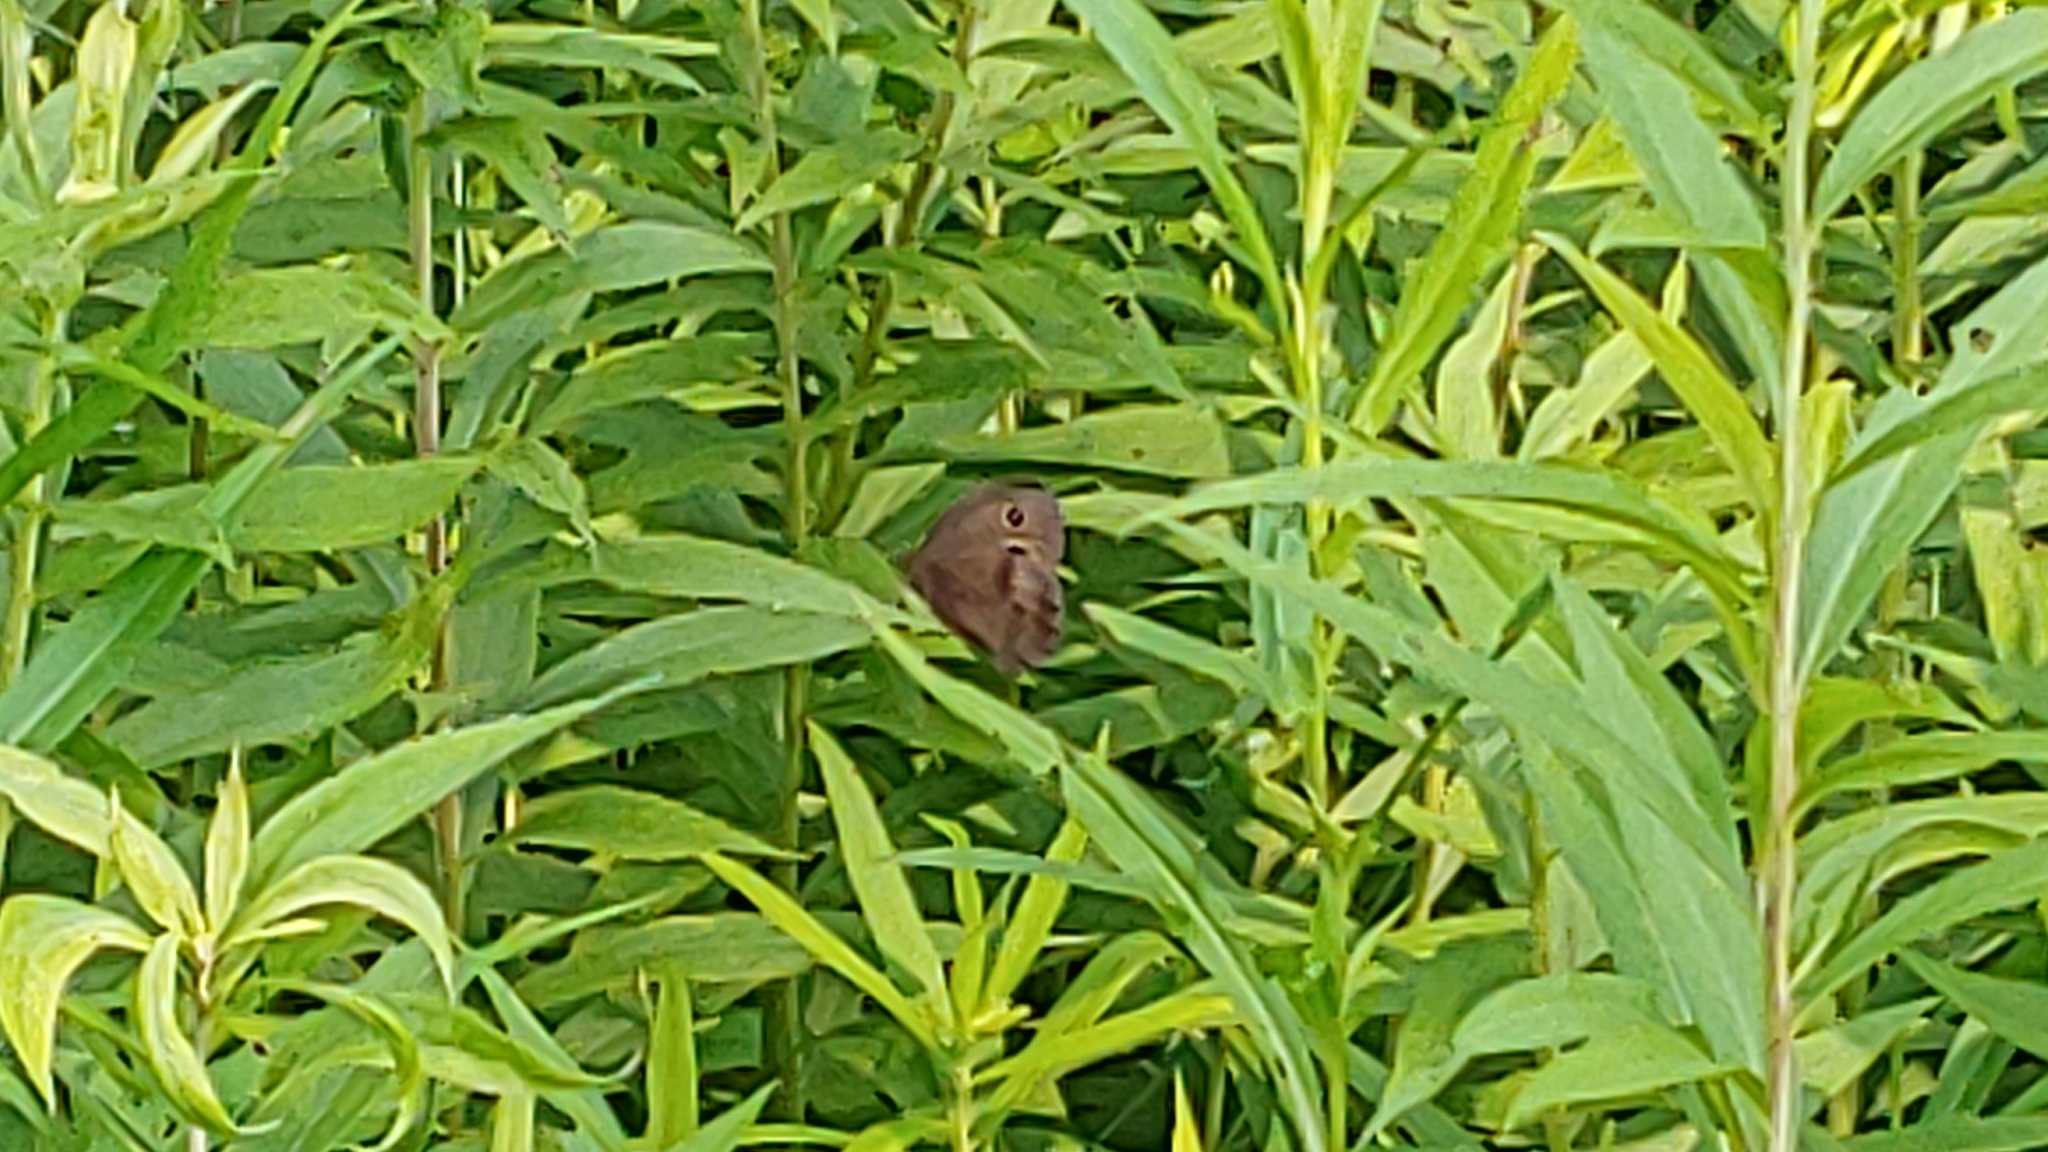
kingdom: Animalia
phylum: Arthropoda
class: Insecta
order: Lepidoptera
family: Nymphalidae
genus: Cercyonis
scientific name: Cercyonis pegala
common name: Common wood-nymph
